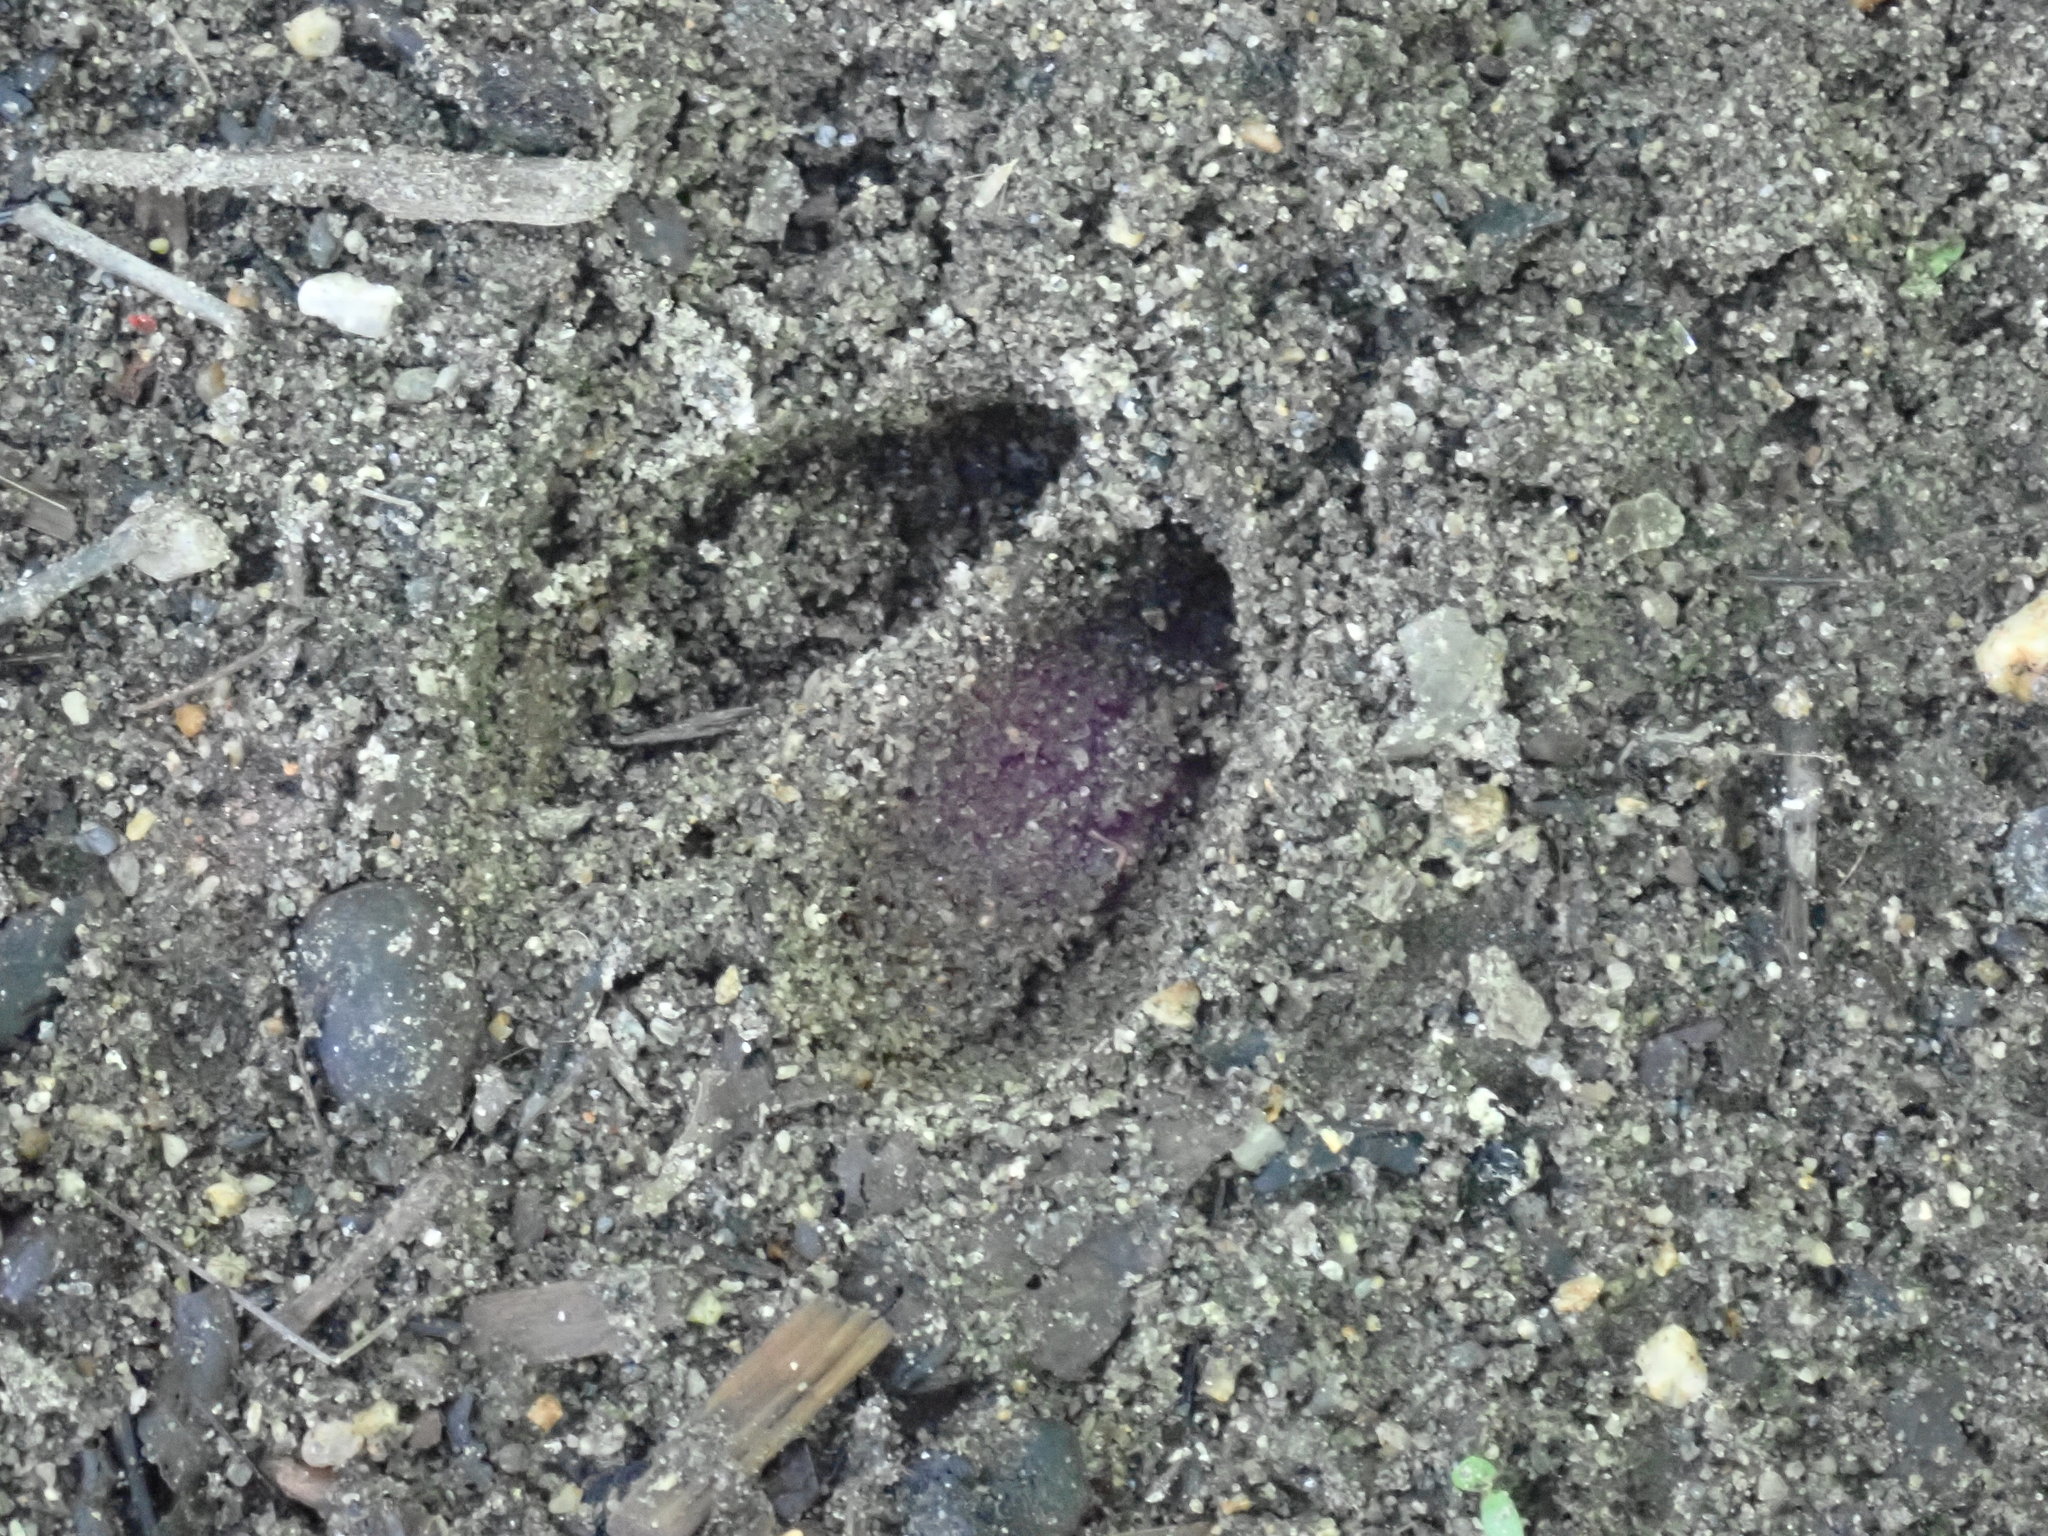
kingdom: Animalia
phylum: Chordata
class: Mammalia
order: Artiodactyla
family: Cervidae
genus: Odocoileus
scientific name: Odocoileus virginianus
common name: White-tailed deer
